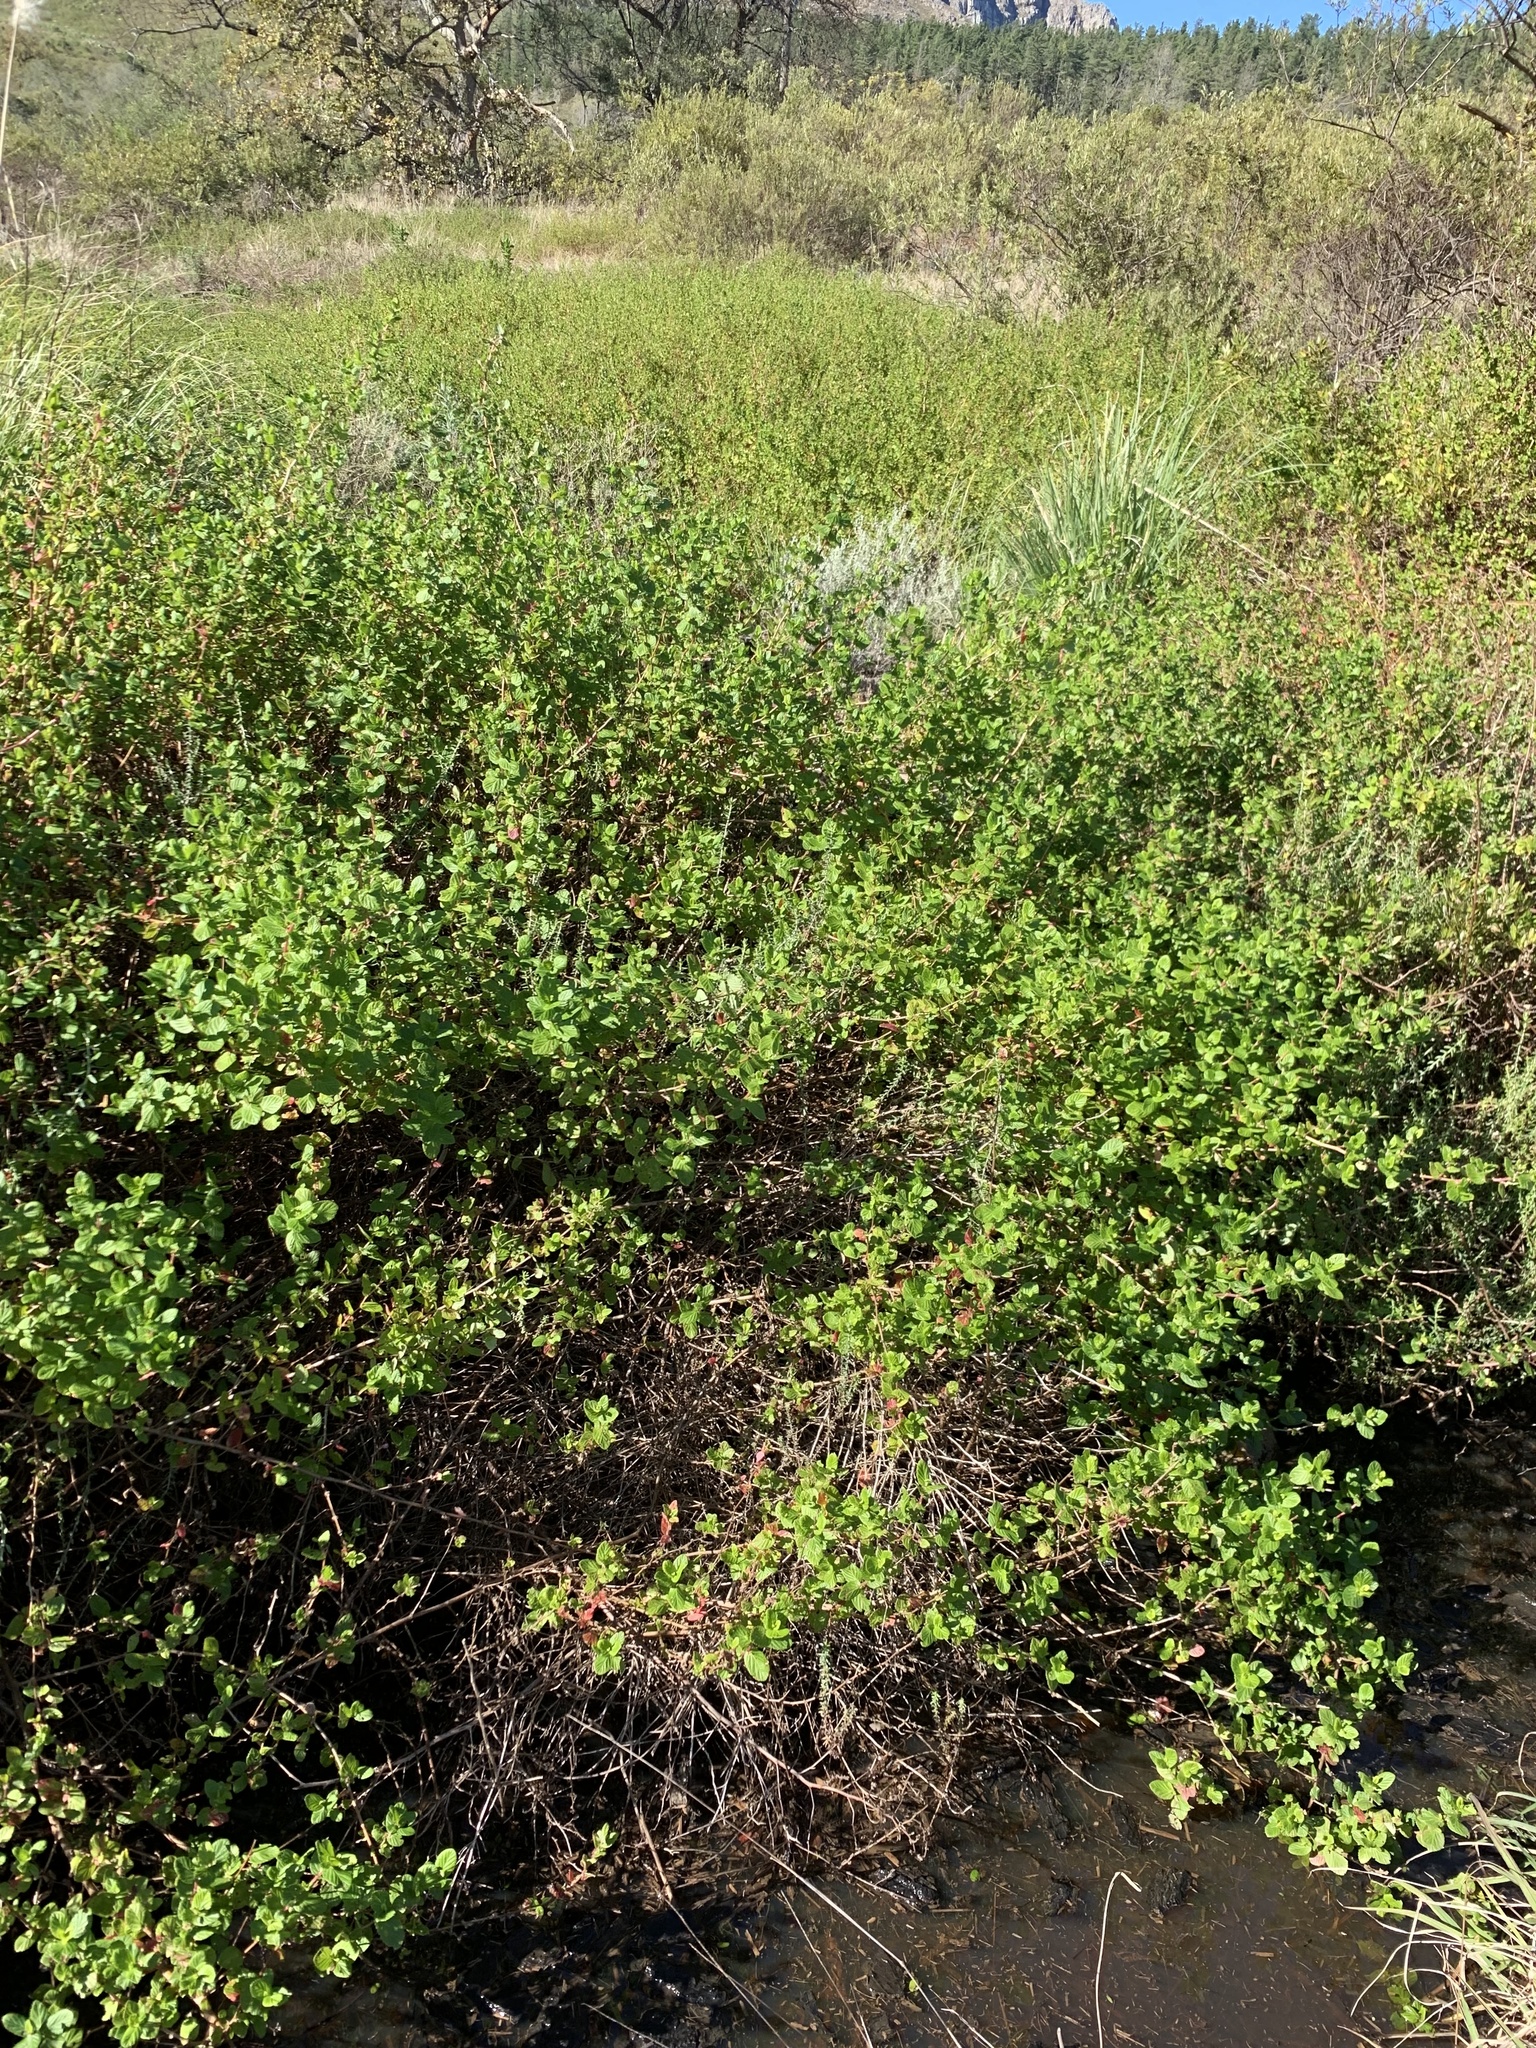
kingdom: Plantae
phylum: Tracheophyta
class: Magnoliopsida
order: Rosales
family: Rosaceae
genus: Cliffortia
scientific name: Cliffortia odorata
